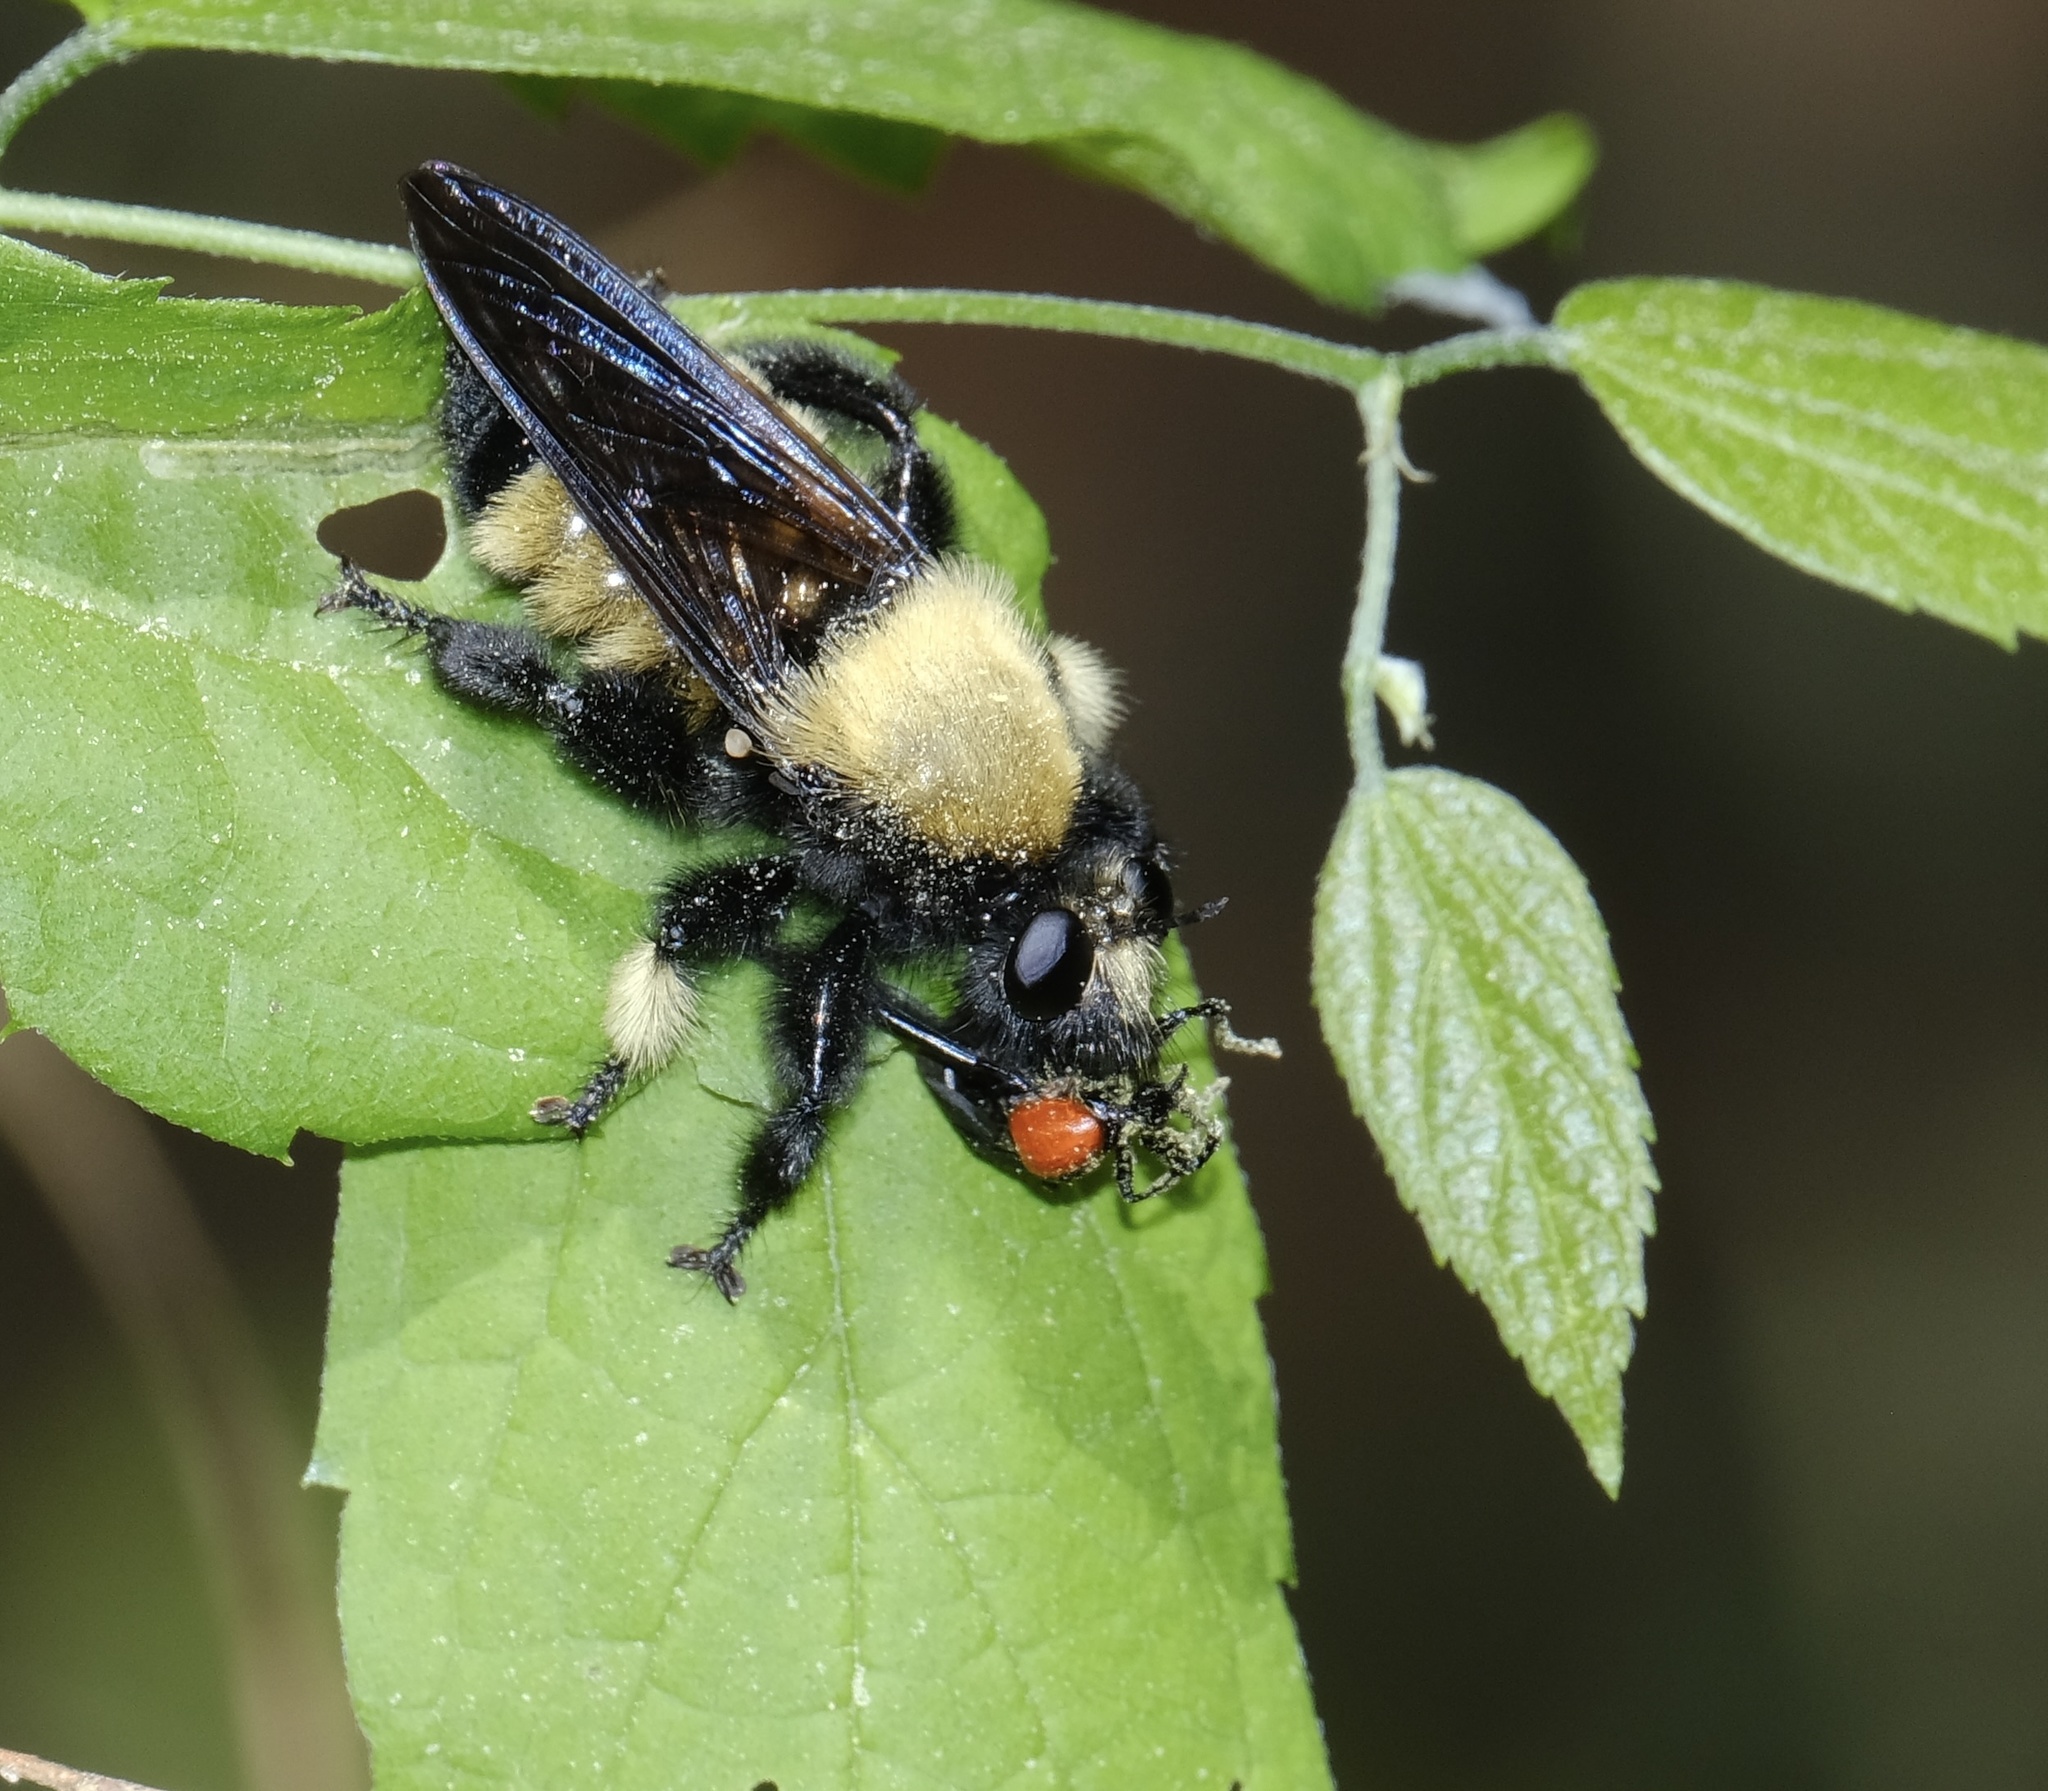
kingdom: Animalia
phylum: Arthropoda
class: Insecta
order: Diptera
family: Asilidae
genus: Laphria
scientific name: Laphria macquarti
